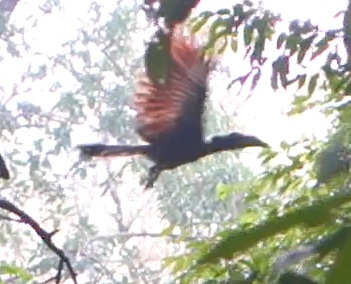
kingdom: Animalia
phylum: Chordata
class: Aves
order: Bucerotiformes
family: Bucerotidae
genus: Anorrhinus
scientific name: Anorrhinus galeritus
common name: Bushy-crested hornbill
